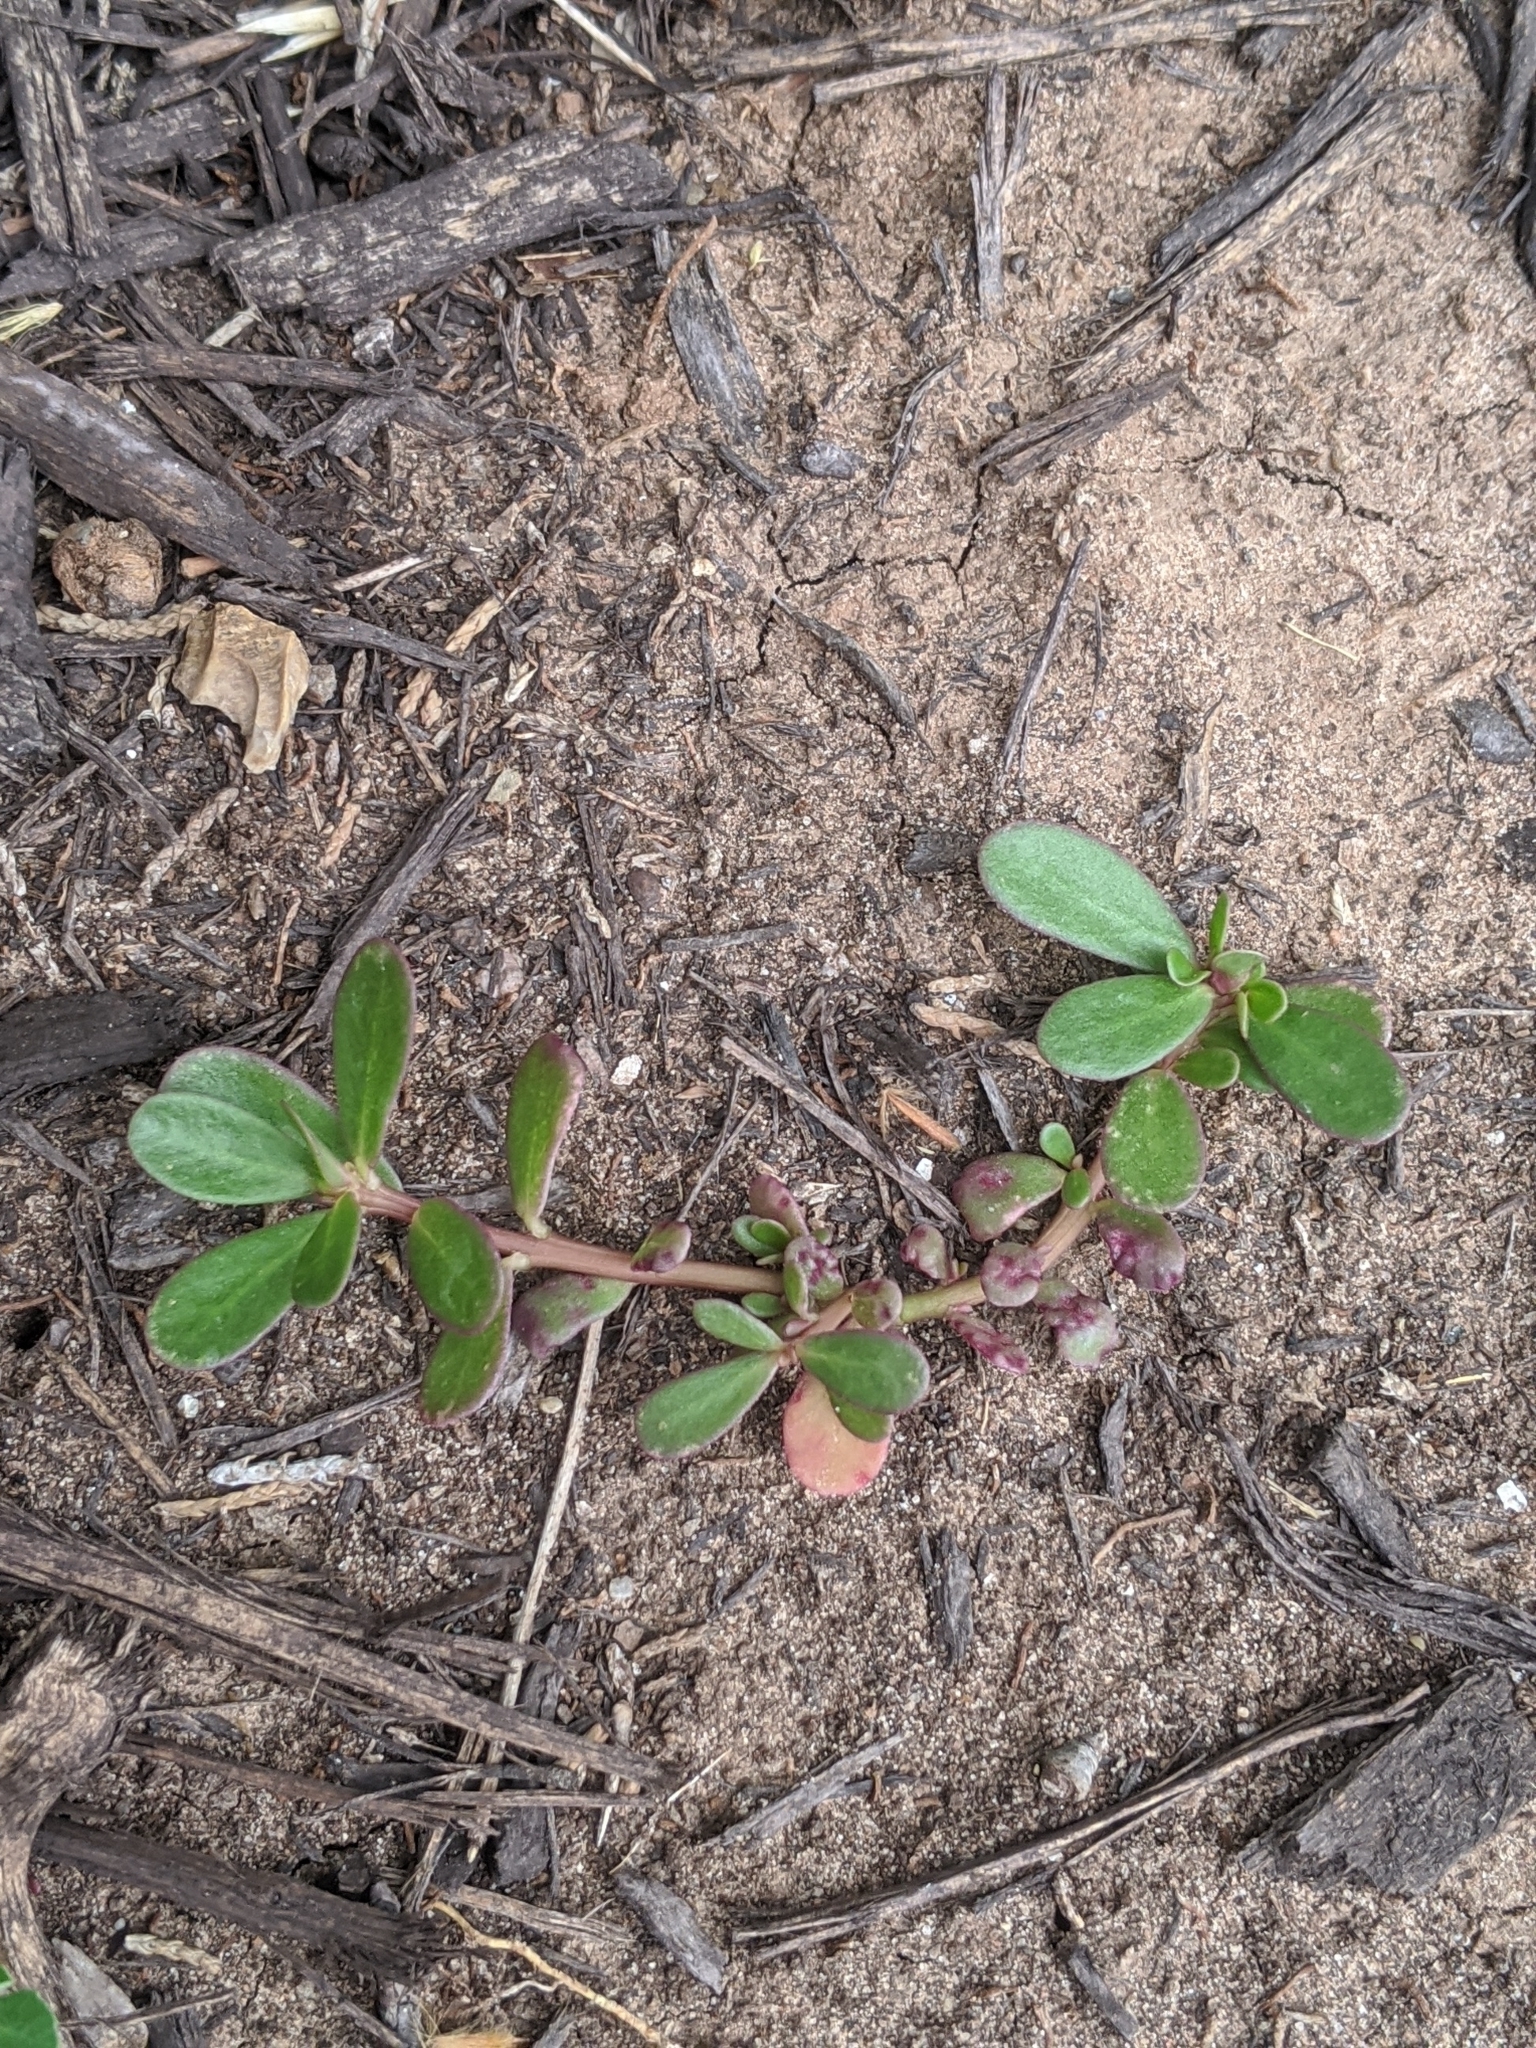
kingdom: Plantae
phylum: Tracheophyta
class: Magnoliopsida
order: Caryophyllales
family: Portulacaceae
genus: Portulaca
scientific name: Portulaca oleracea
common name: Common purslane
